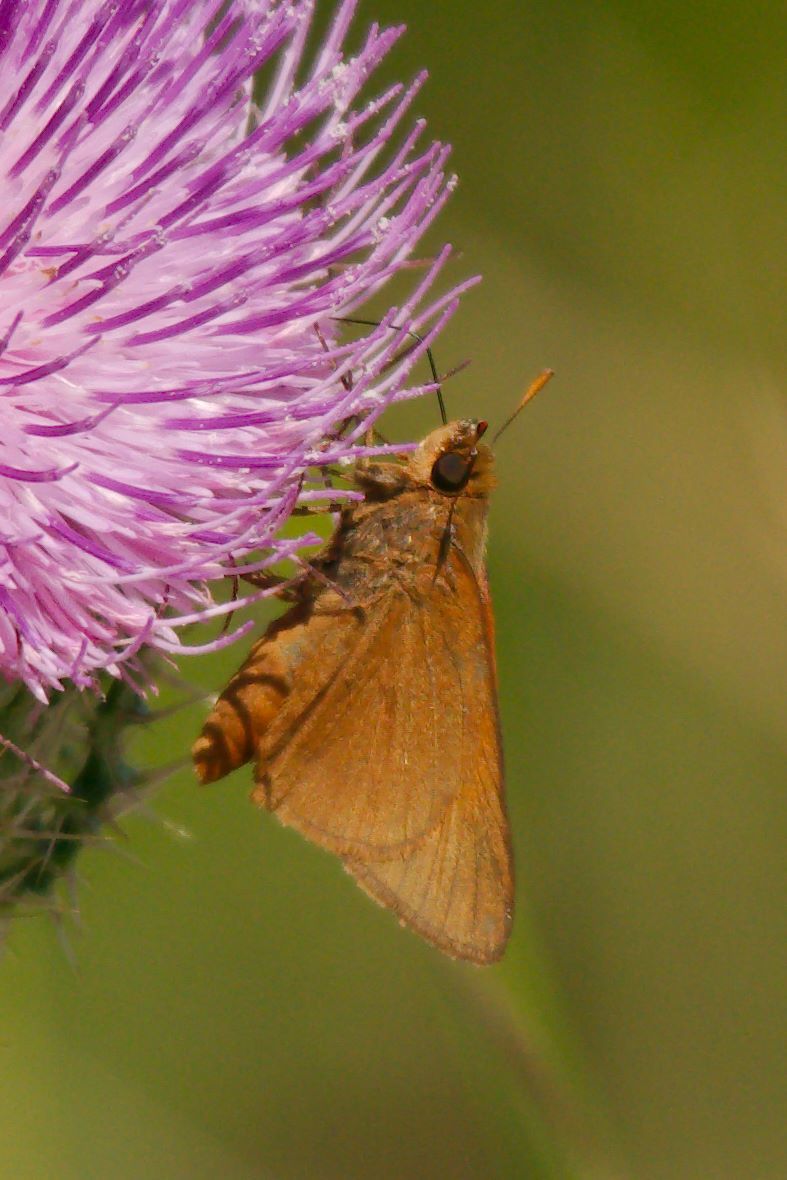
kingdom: Animalia
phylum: Arthropoda
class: Insecta
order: Lepidoptera
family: Hesperiidae
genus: Euphyes
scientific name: Euphyes pilatka
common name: Palatka skipper
